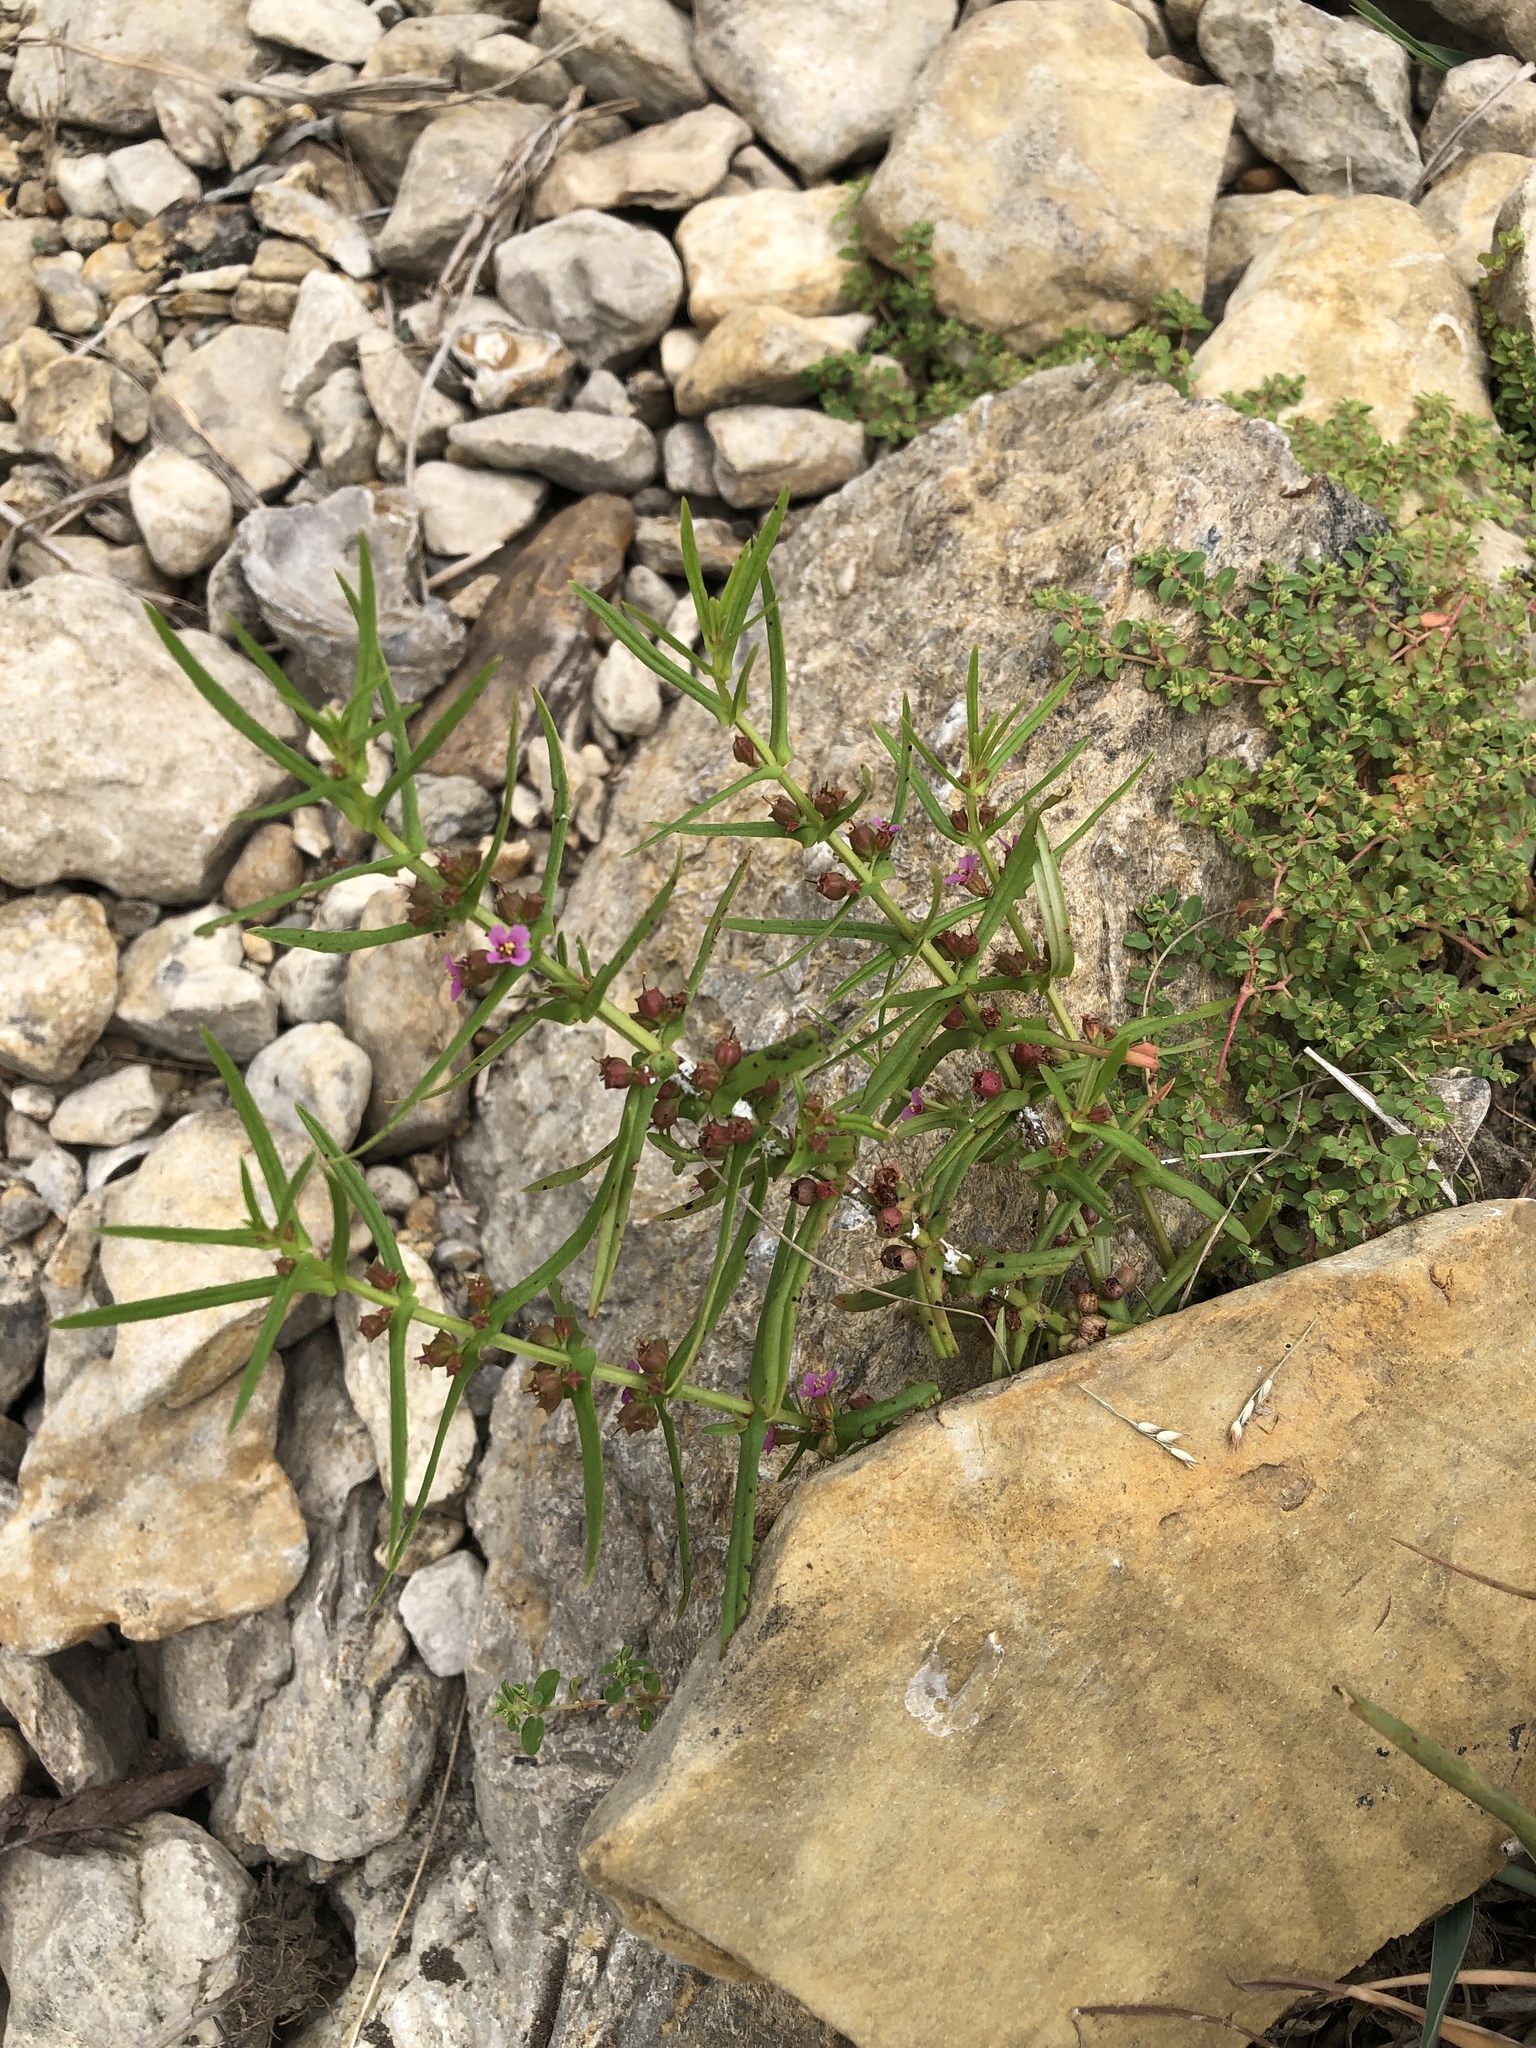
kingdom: Plantae
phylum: Tracheophyta
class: Magnoliopsida
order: Myrtales
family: Lythraceae
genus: Ammannia
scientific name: Ammannia coccinea
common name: Valley redstem
